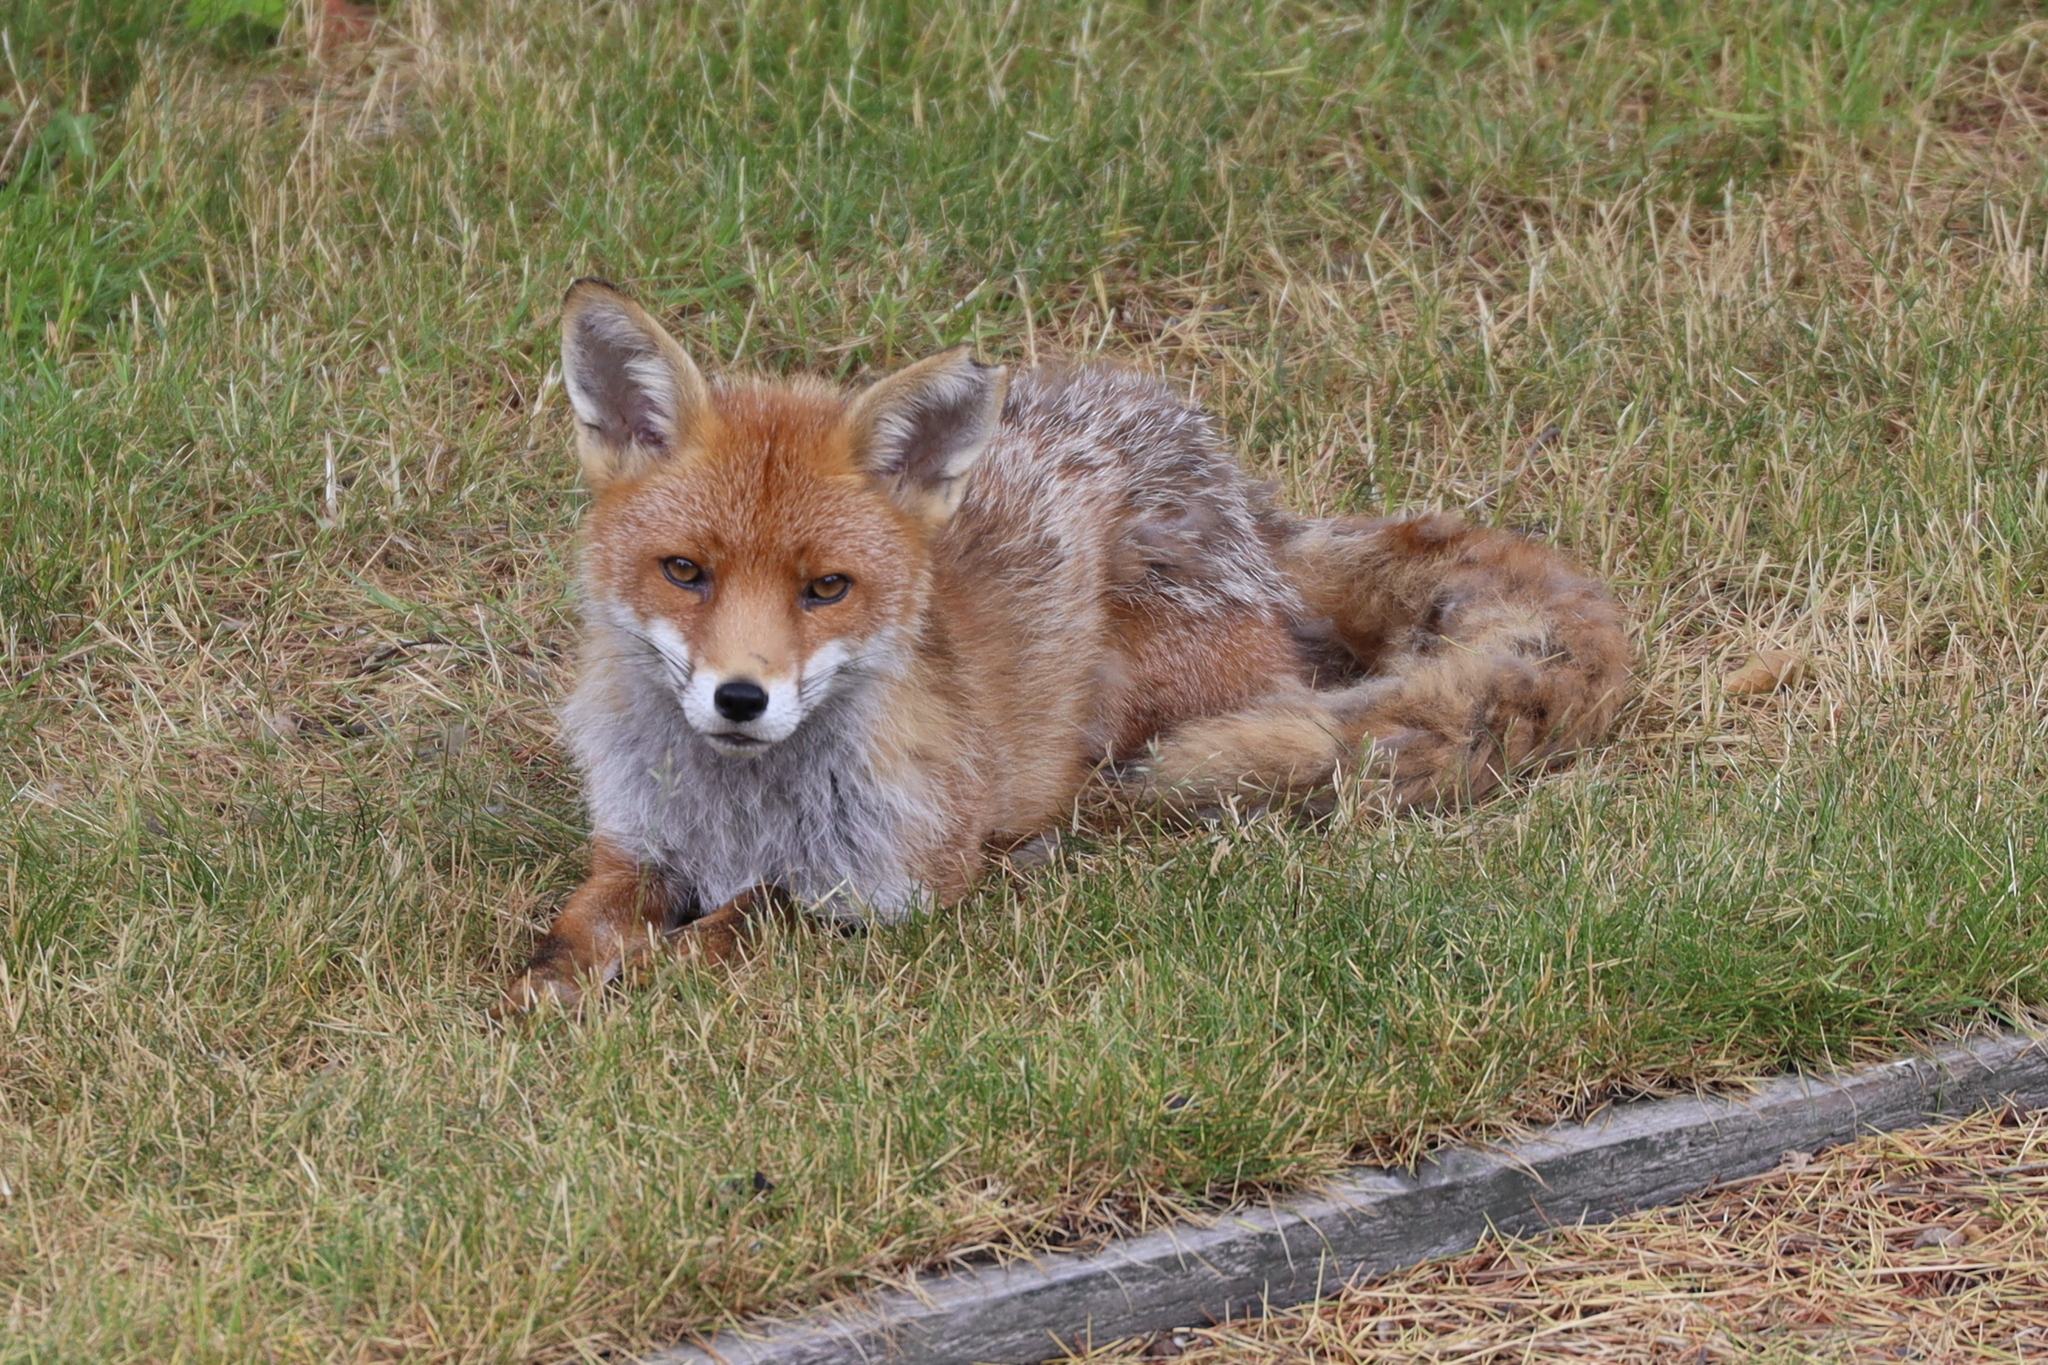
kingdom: Animalia
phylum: Chordata
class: Mammalia
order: Carnivora
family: Canidae
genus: Vulpes
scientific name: Vulpes vulpes
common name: Red fox
